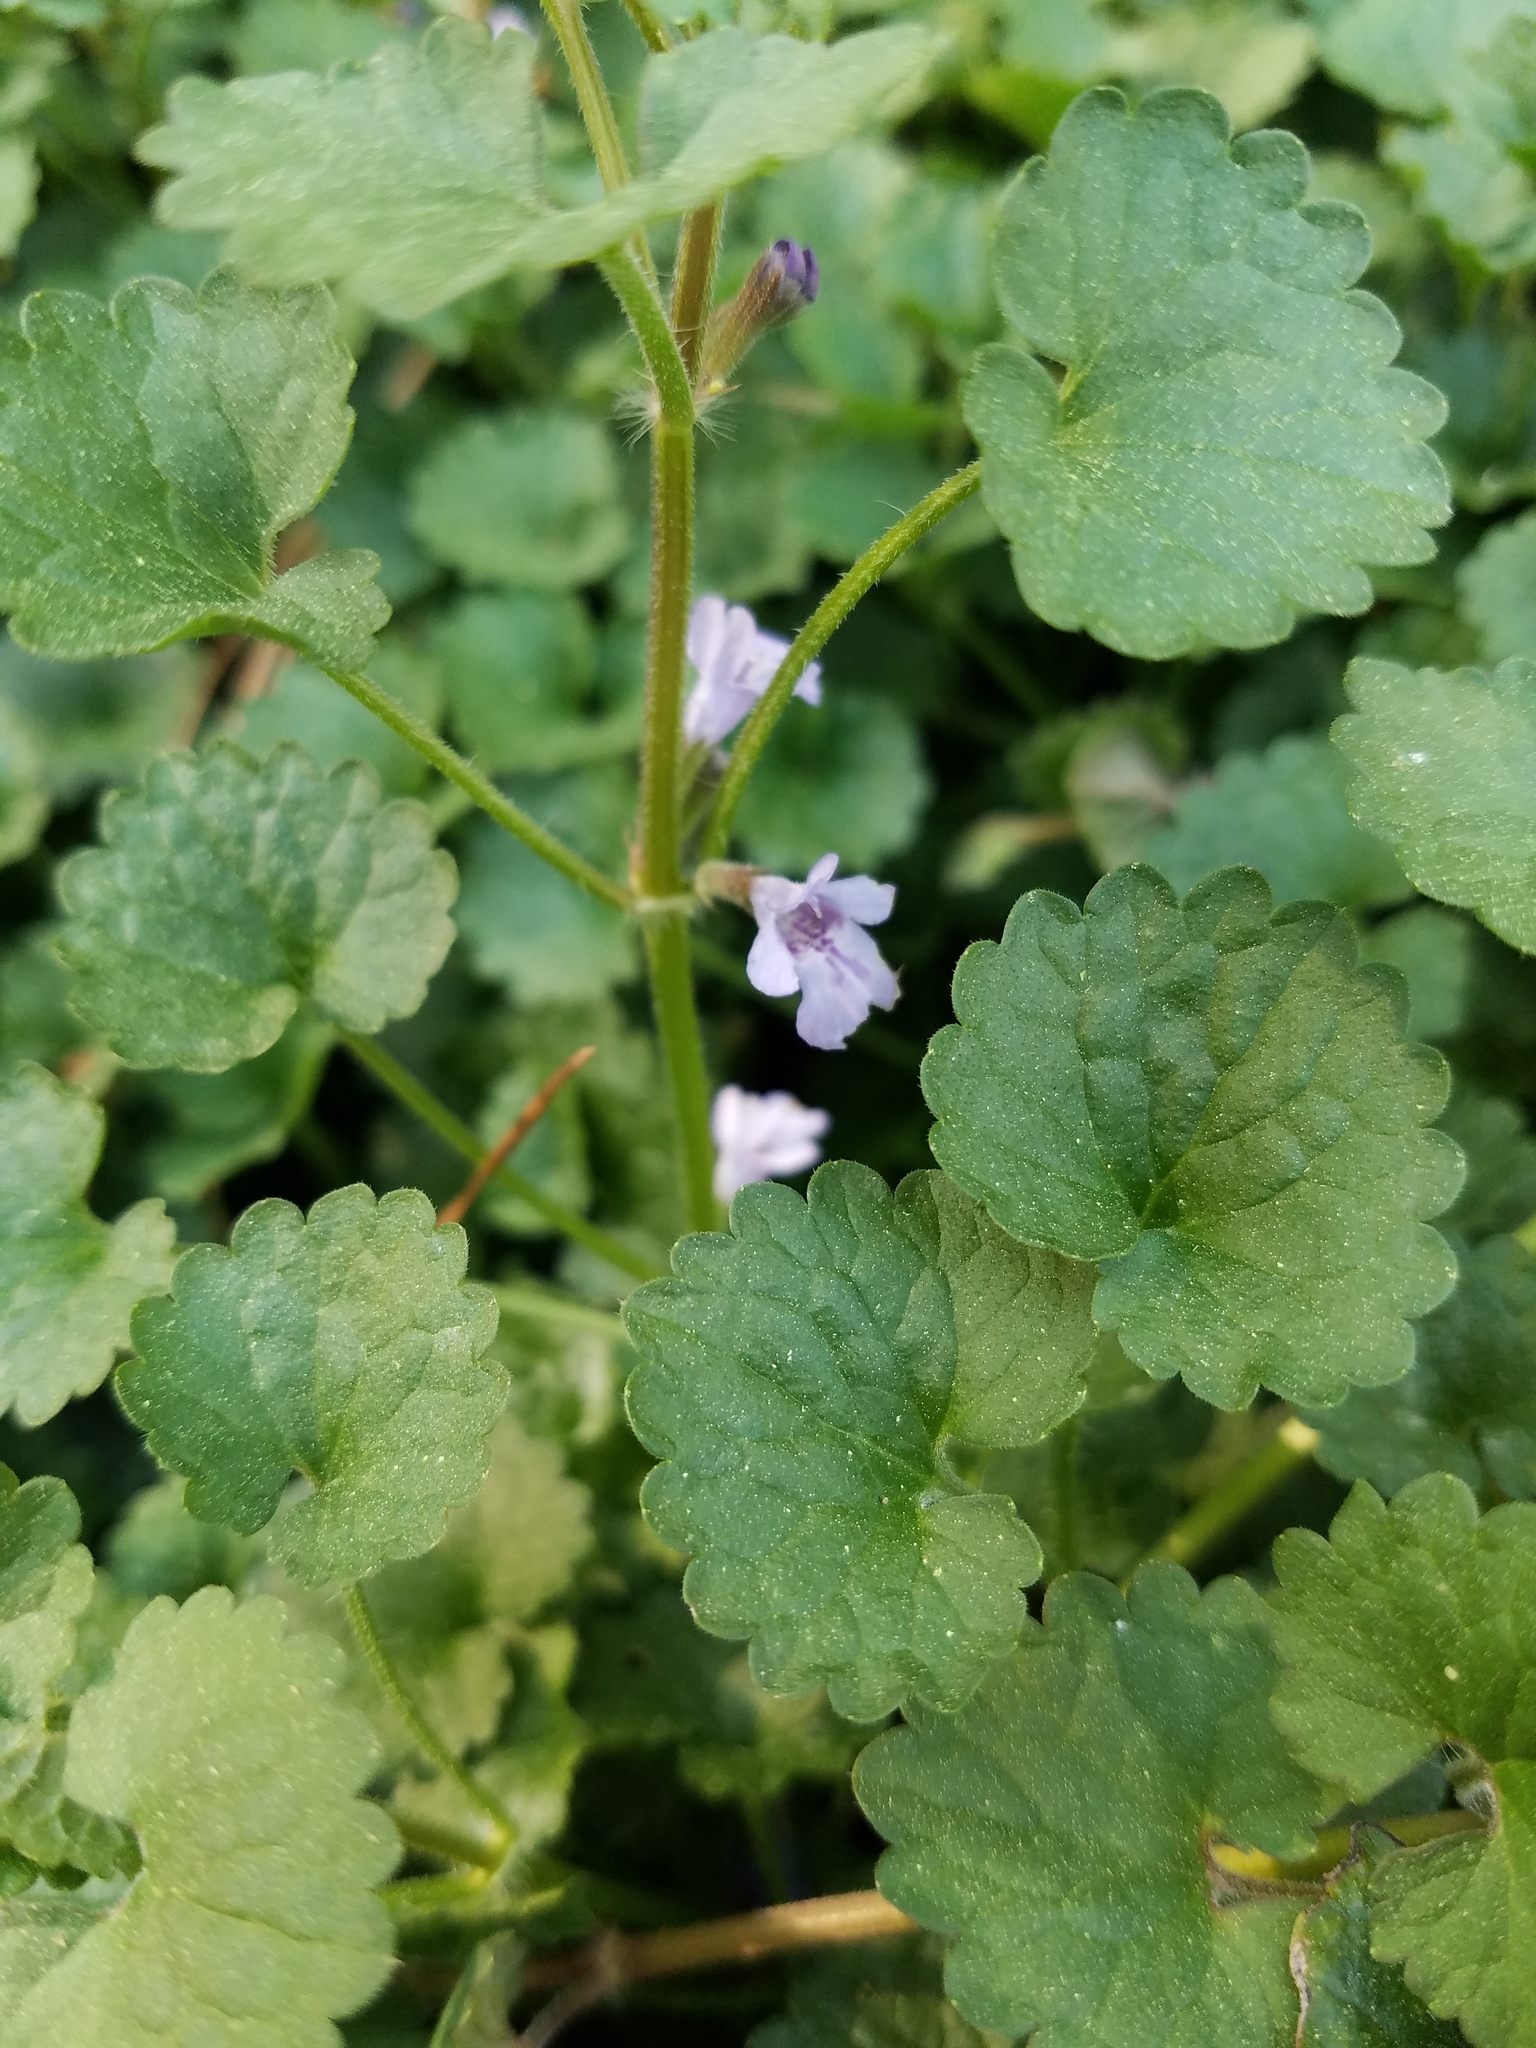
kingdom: Plantae
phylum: Tracheophyta
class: Magnoliopsida
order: Lamiales
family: Lamiaceae
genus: Glechoma
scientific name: Glechoma hederacea
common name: Ground ivy
